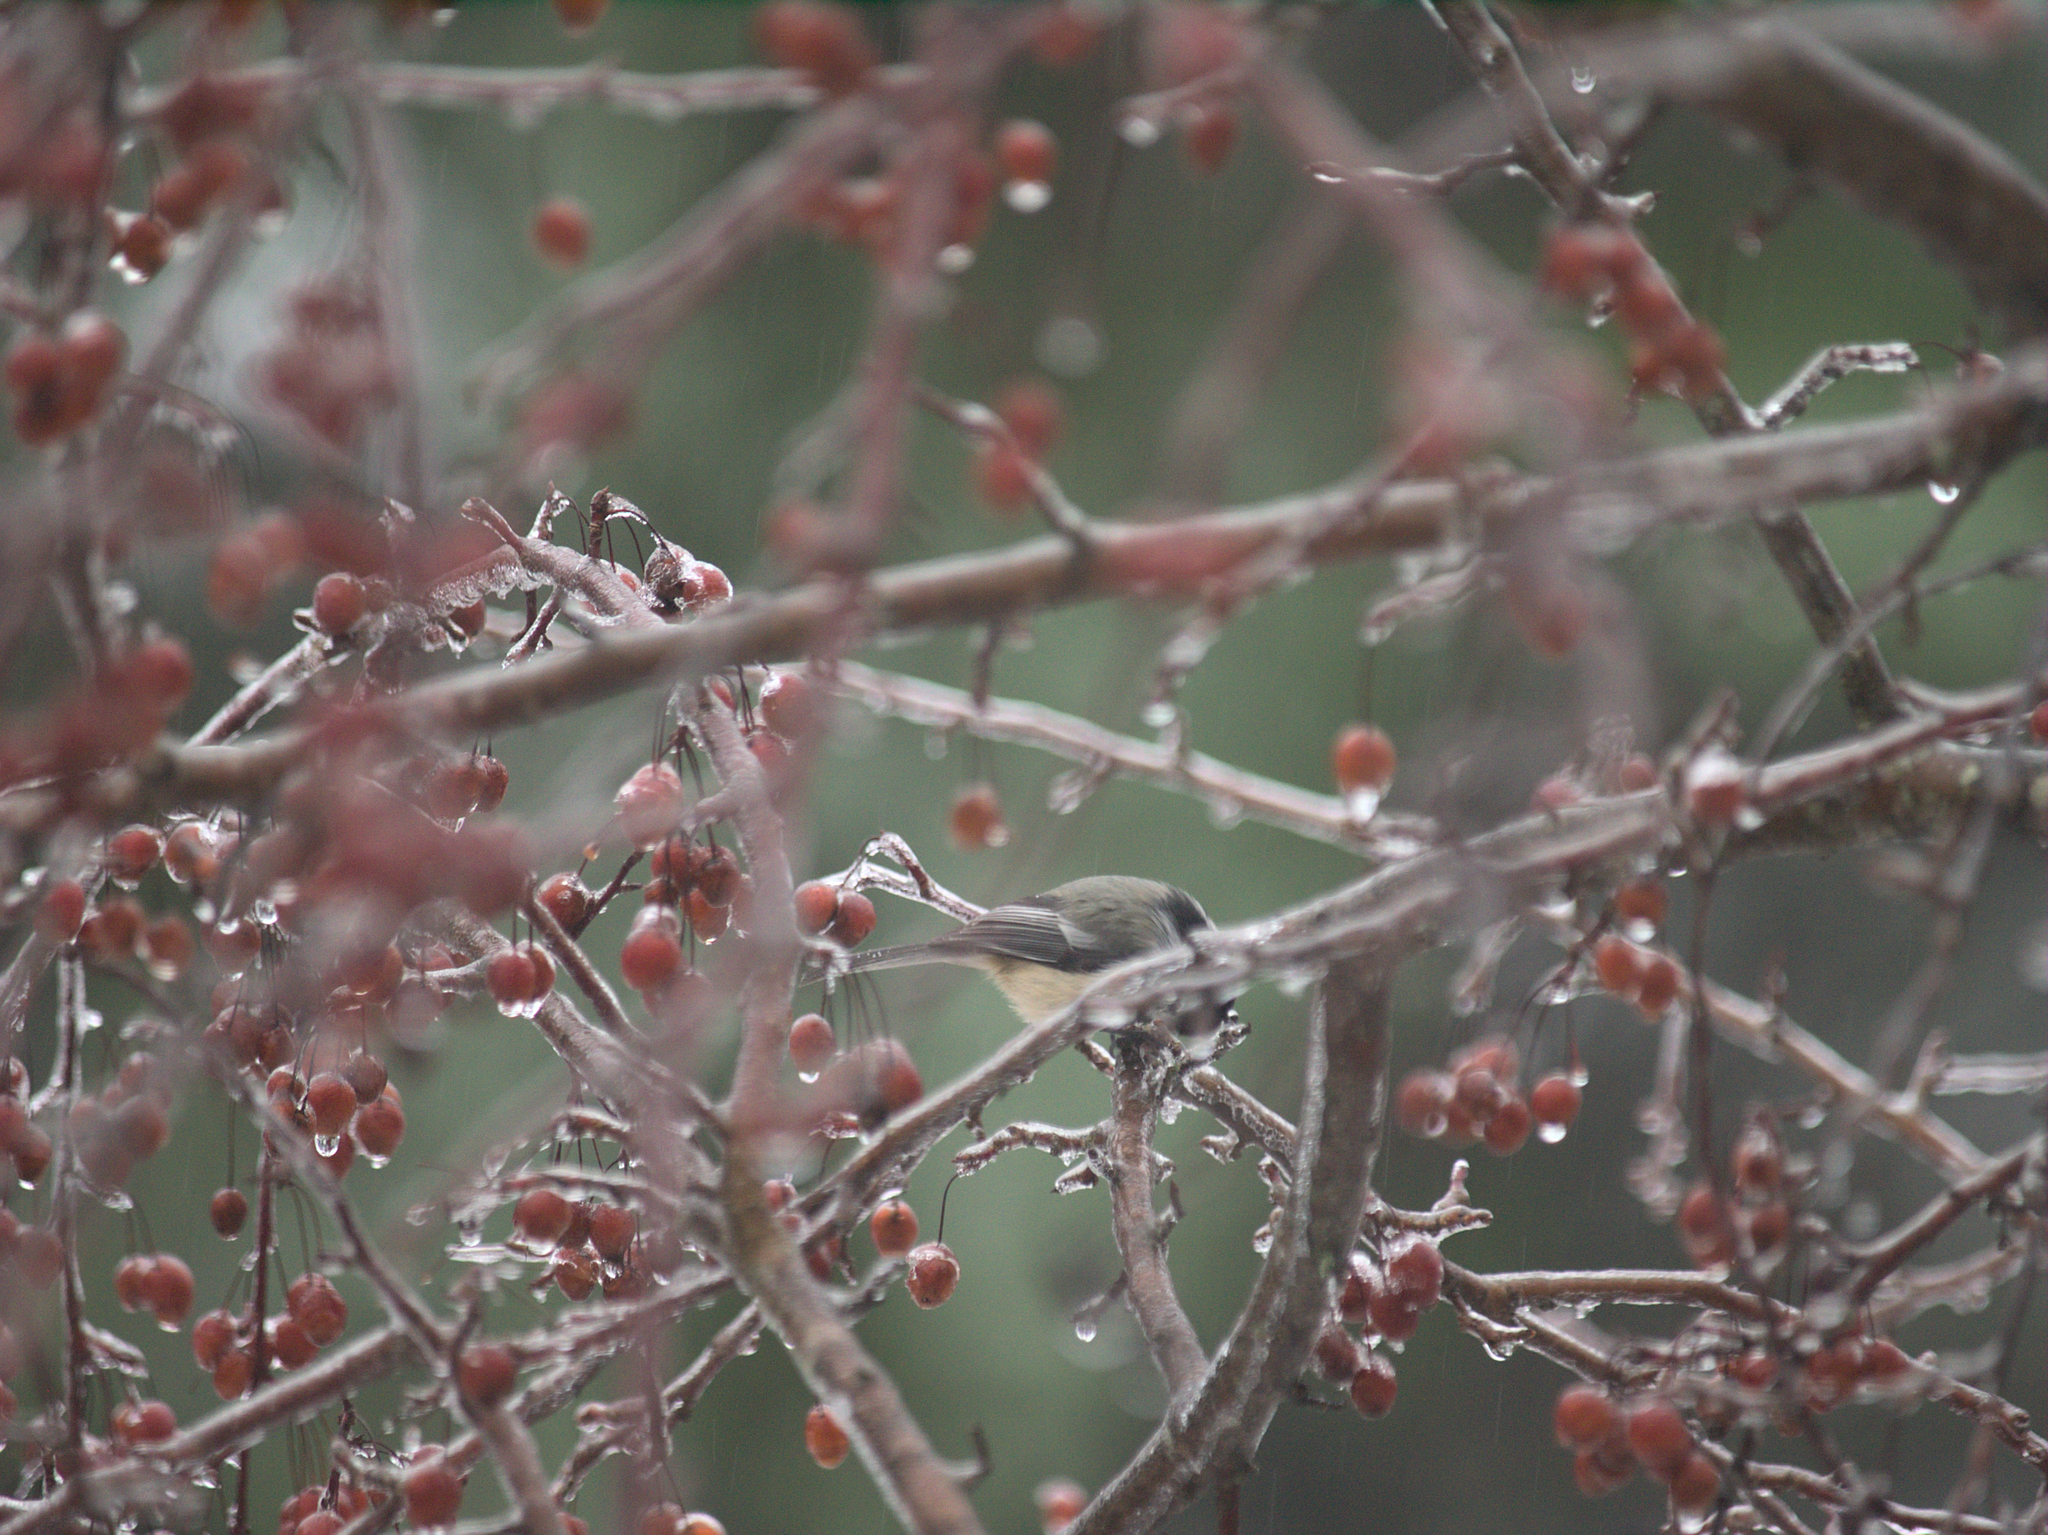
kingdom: Animalia
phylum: Chordata
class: Aves
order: Passeriformes
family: Paridae
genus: Poecile
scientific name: Poecile atricapillus
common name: Black-capped chickadee
